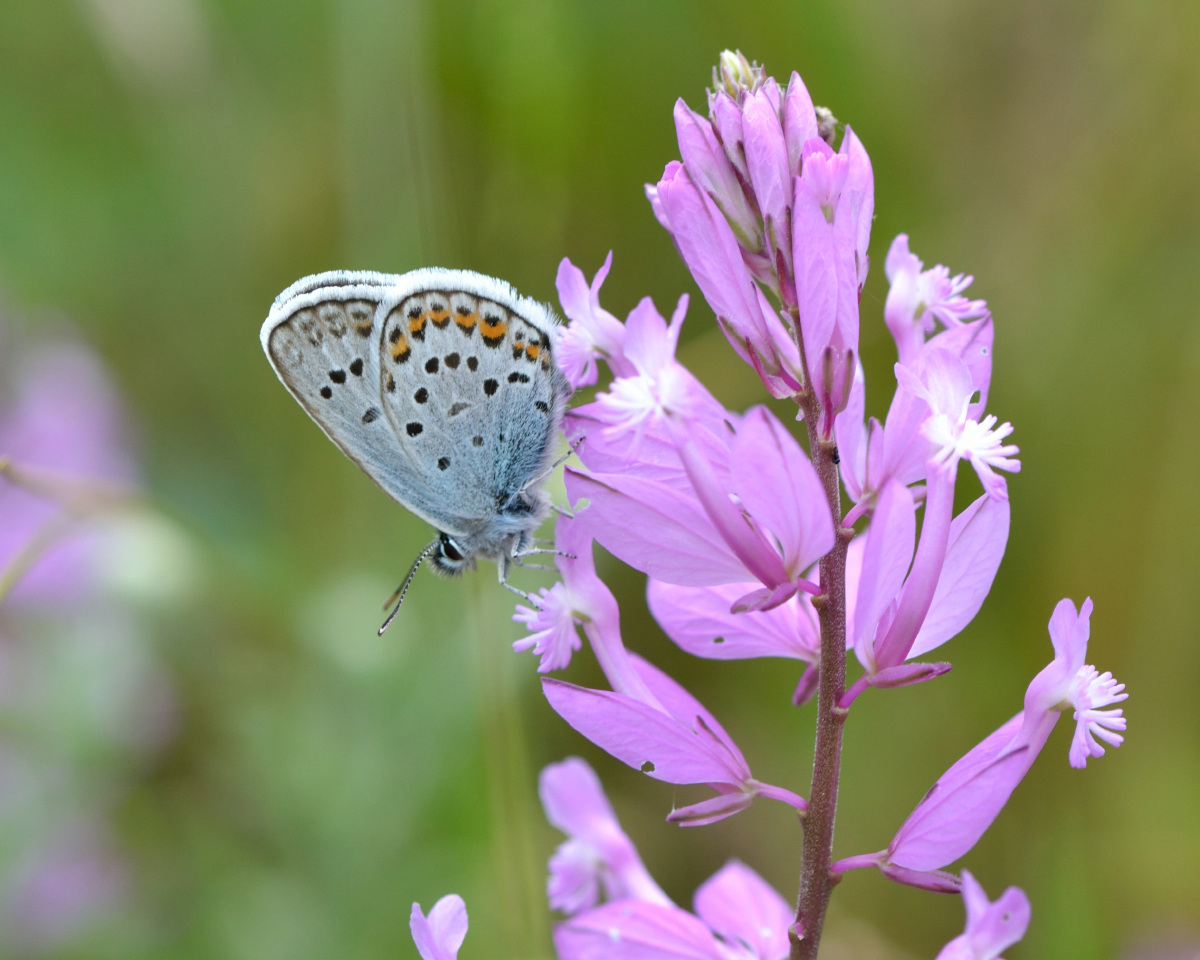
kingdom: Animalia
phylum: Arthropoda
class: Insecta
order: Lepidoptera
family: Lycaenidae
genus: Plebejus
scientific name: Plebejus argus
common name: Silver-studded blue
